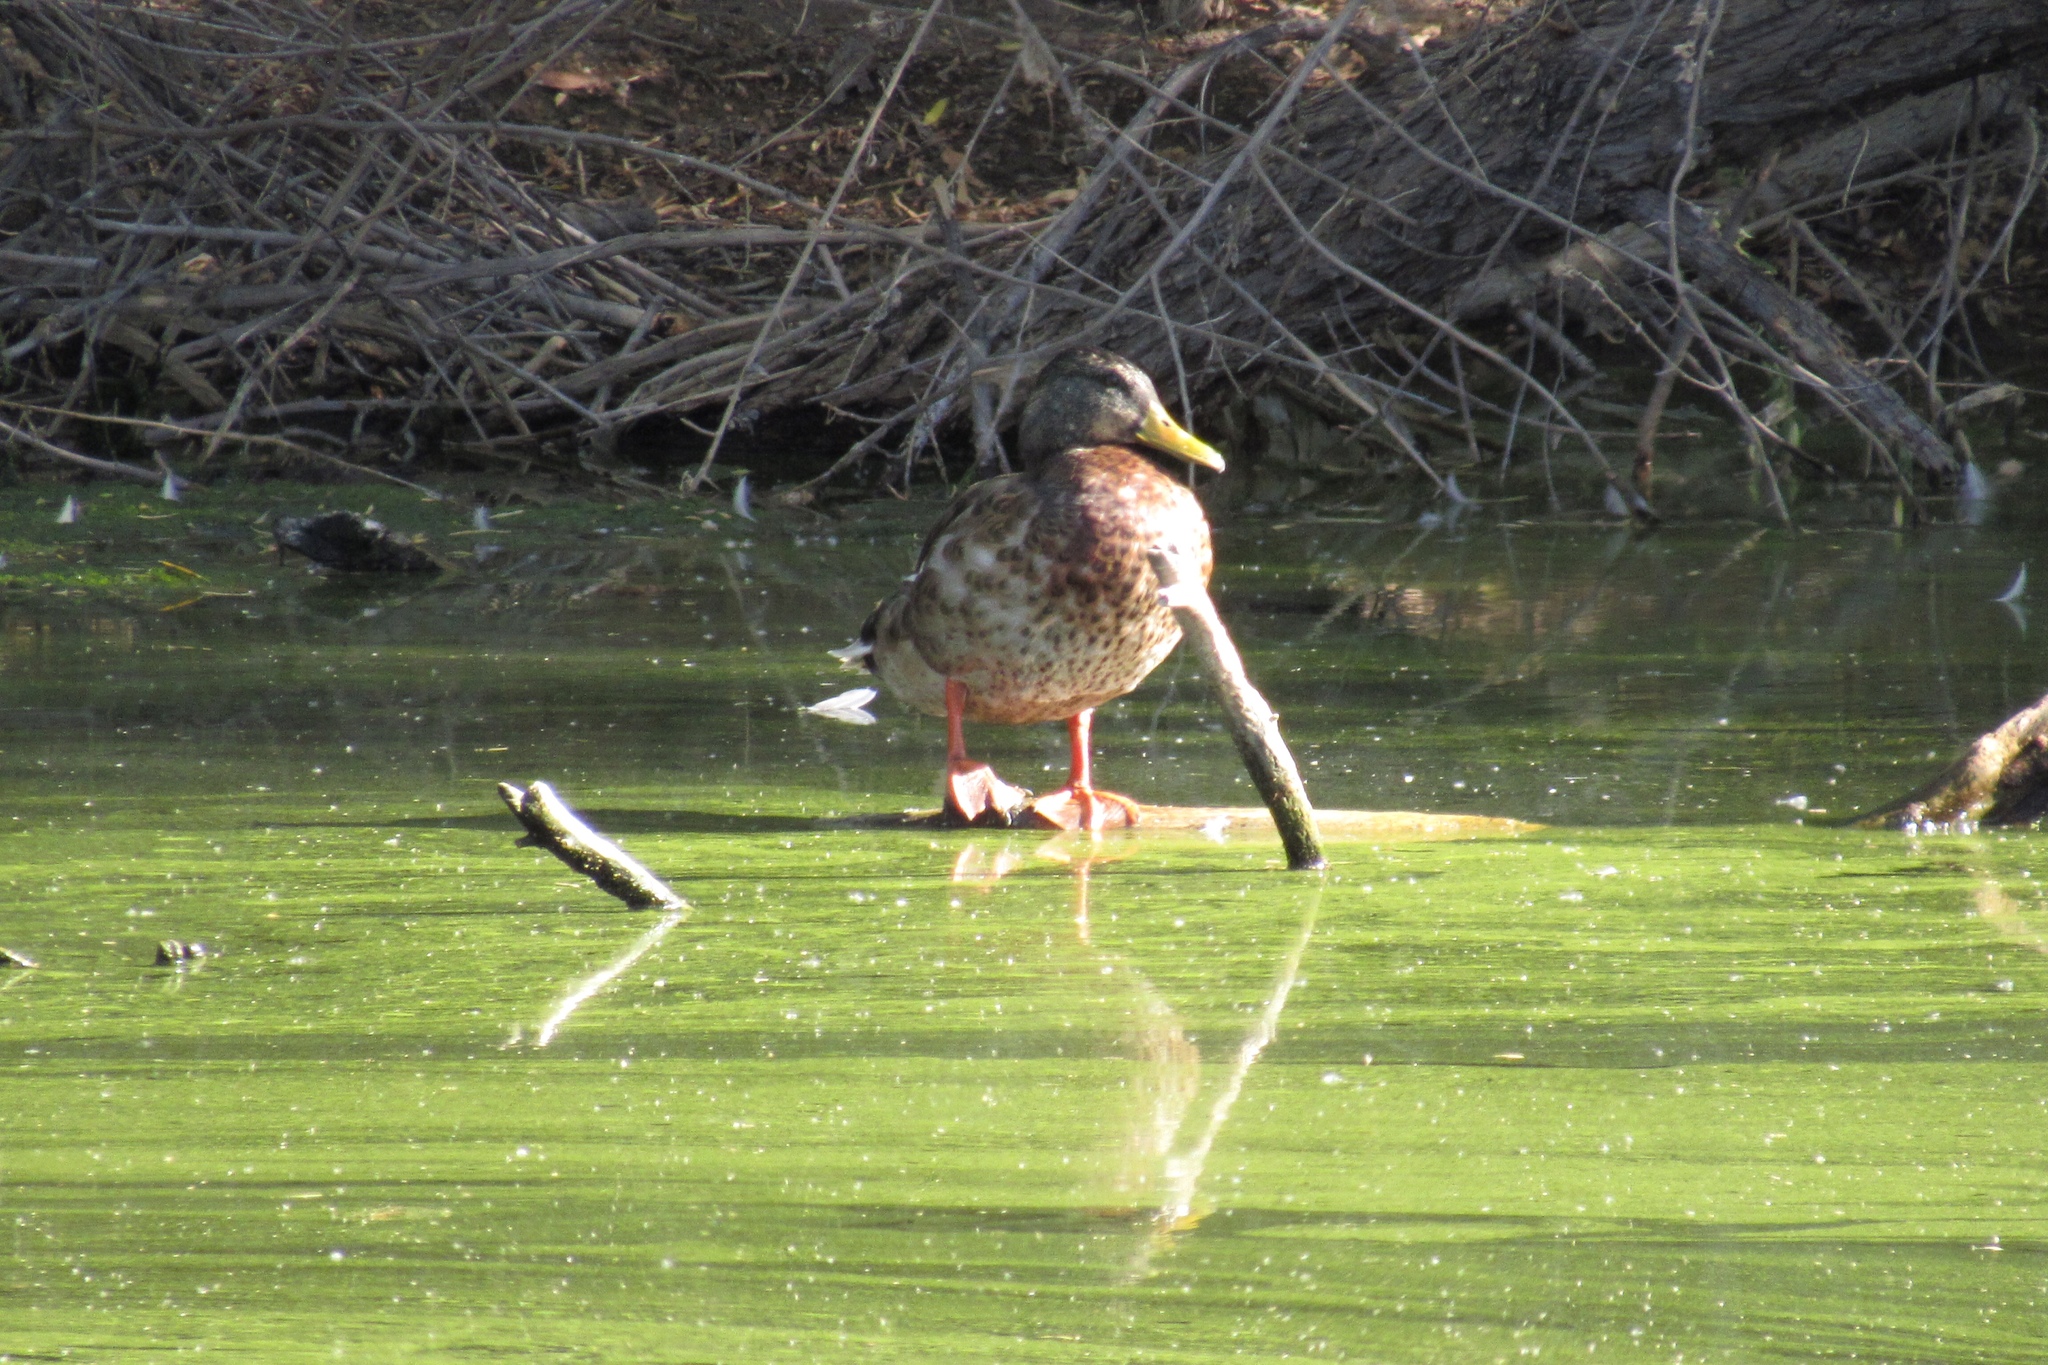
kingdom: Animalia
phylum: Chordata
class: Aves
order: Anseriformes
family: Anatidae
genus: Anas
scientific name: Anas platyrhynchos
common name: Mallard
